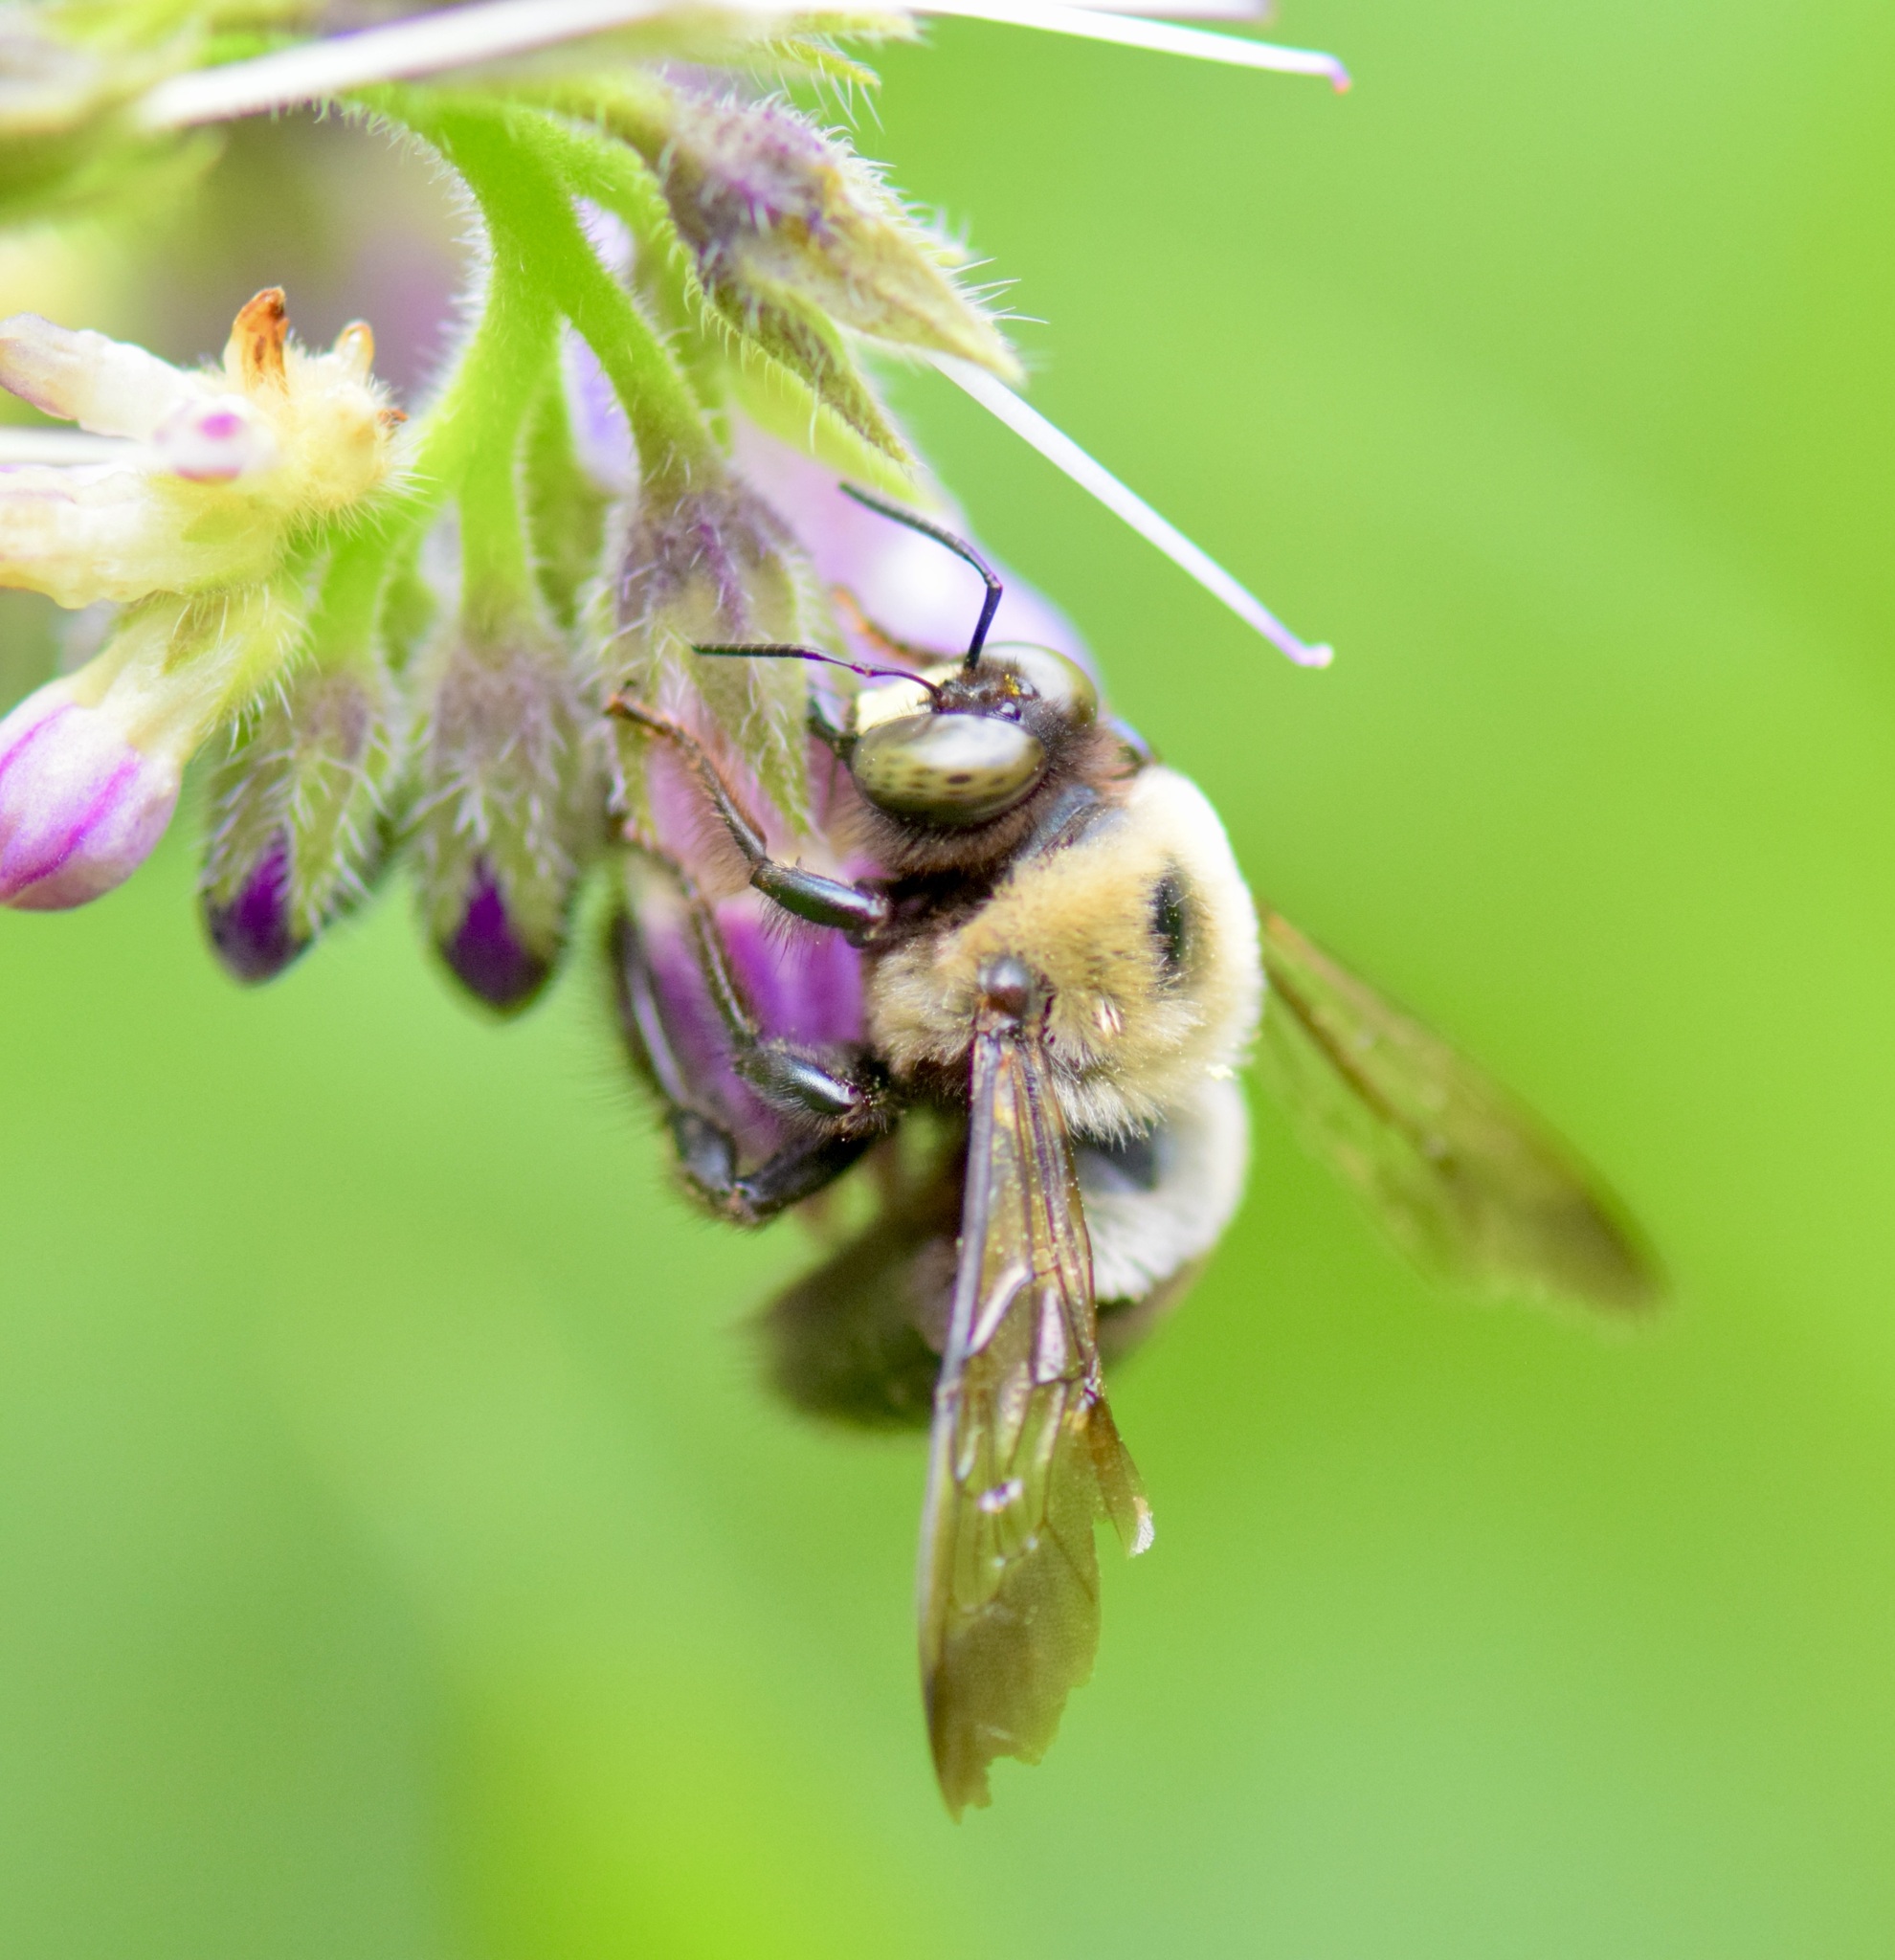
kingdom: Animalia
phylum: Arthropoda
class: Insecta
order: Hymenoptera
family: Apidae
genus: Xylocopa
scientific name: Xylocopa virginica
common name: Carpenter bee
